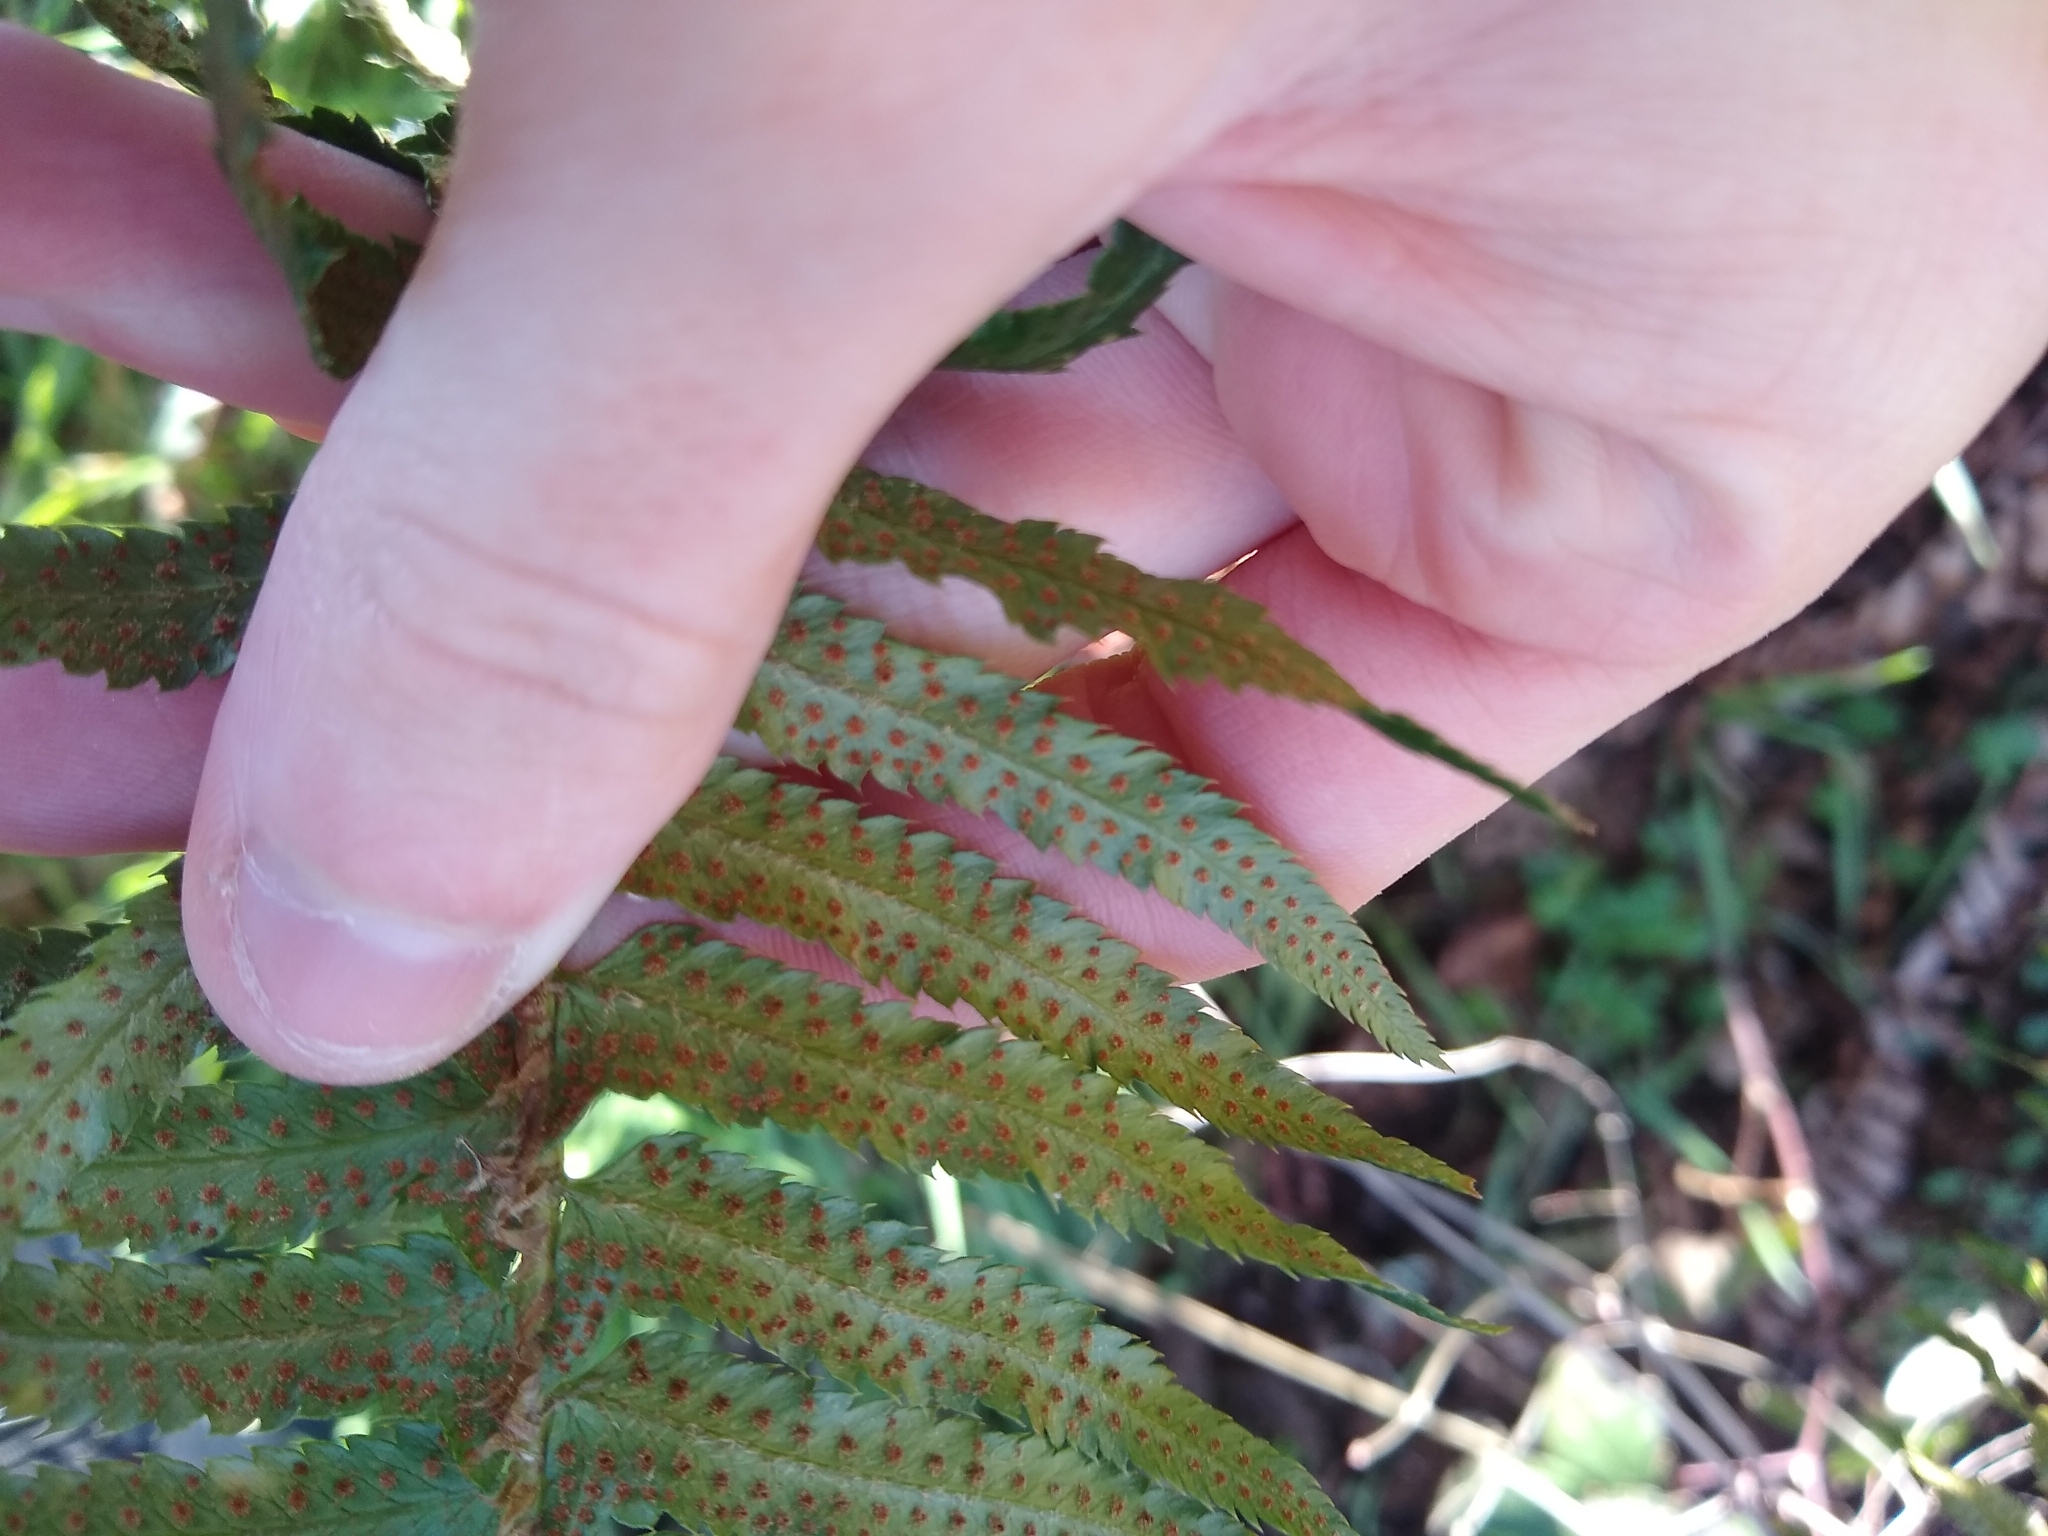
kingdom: Plantae
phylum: Tracheophyta
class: Polypodiopsida
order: Polypodiales
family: Dryopteridaceae
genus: Polystichum
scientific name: Polystichum munitum
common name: Western sword-fern
